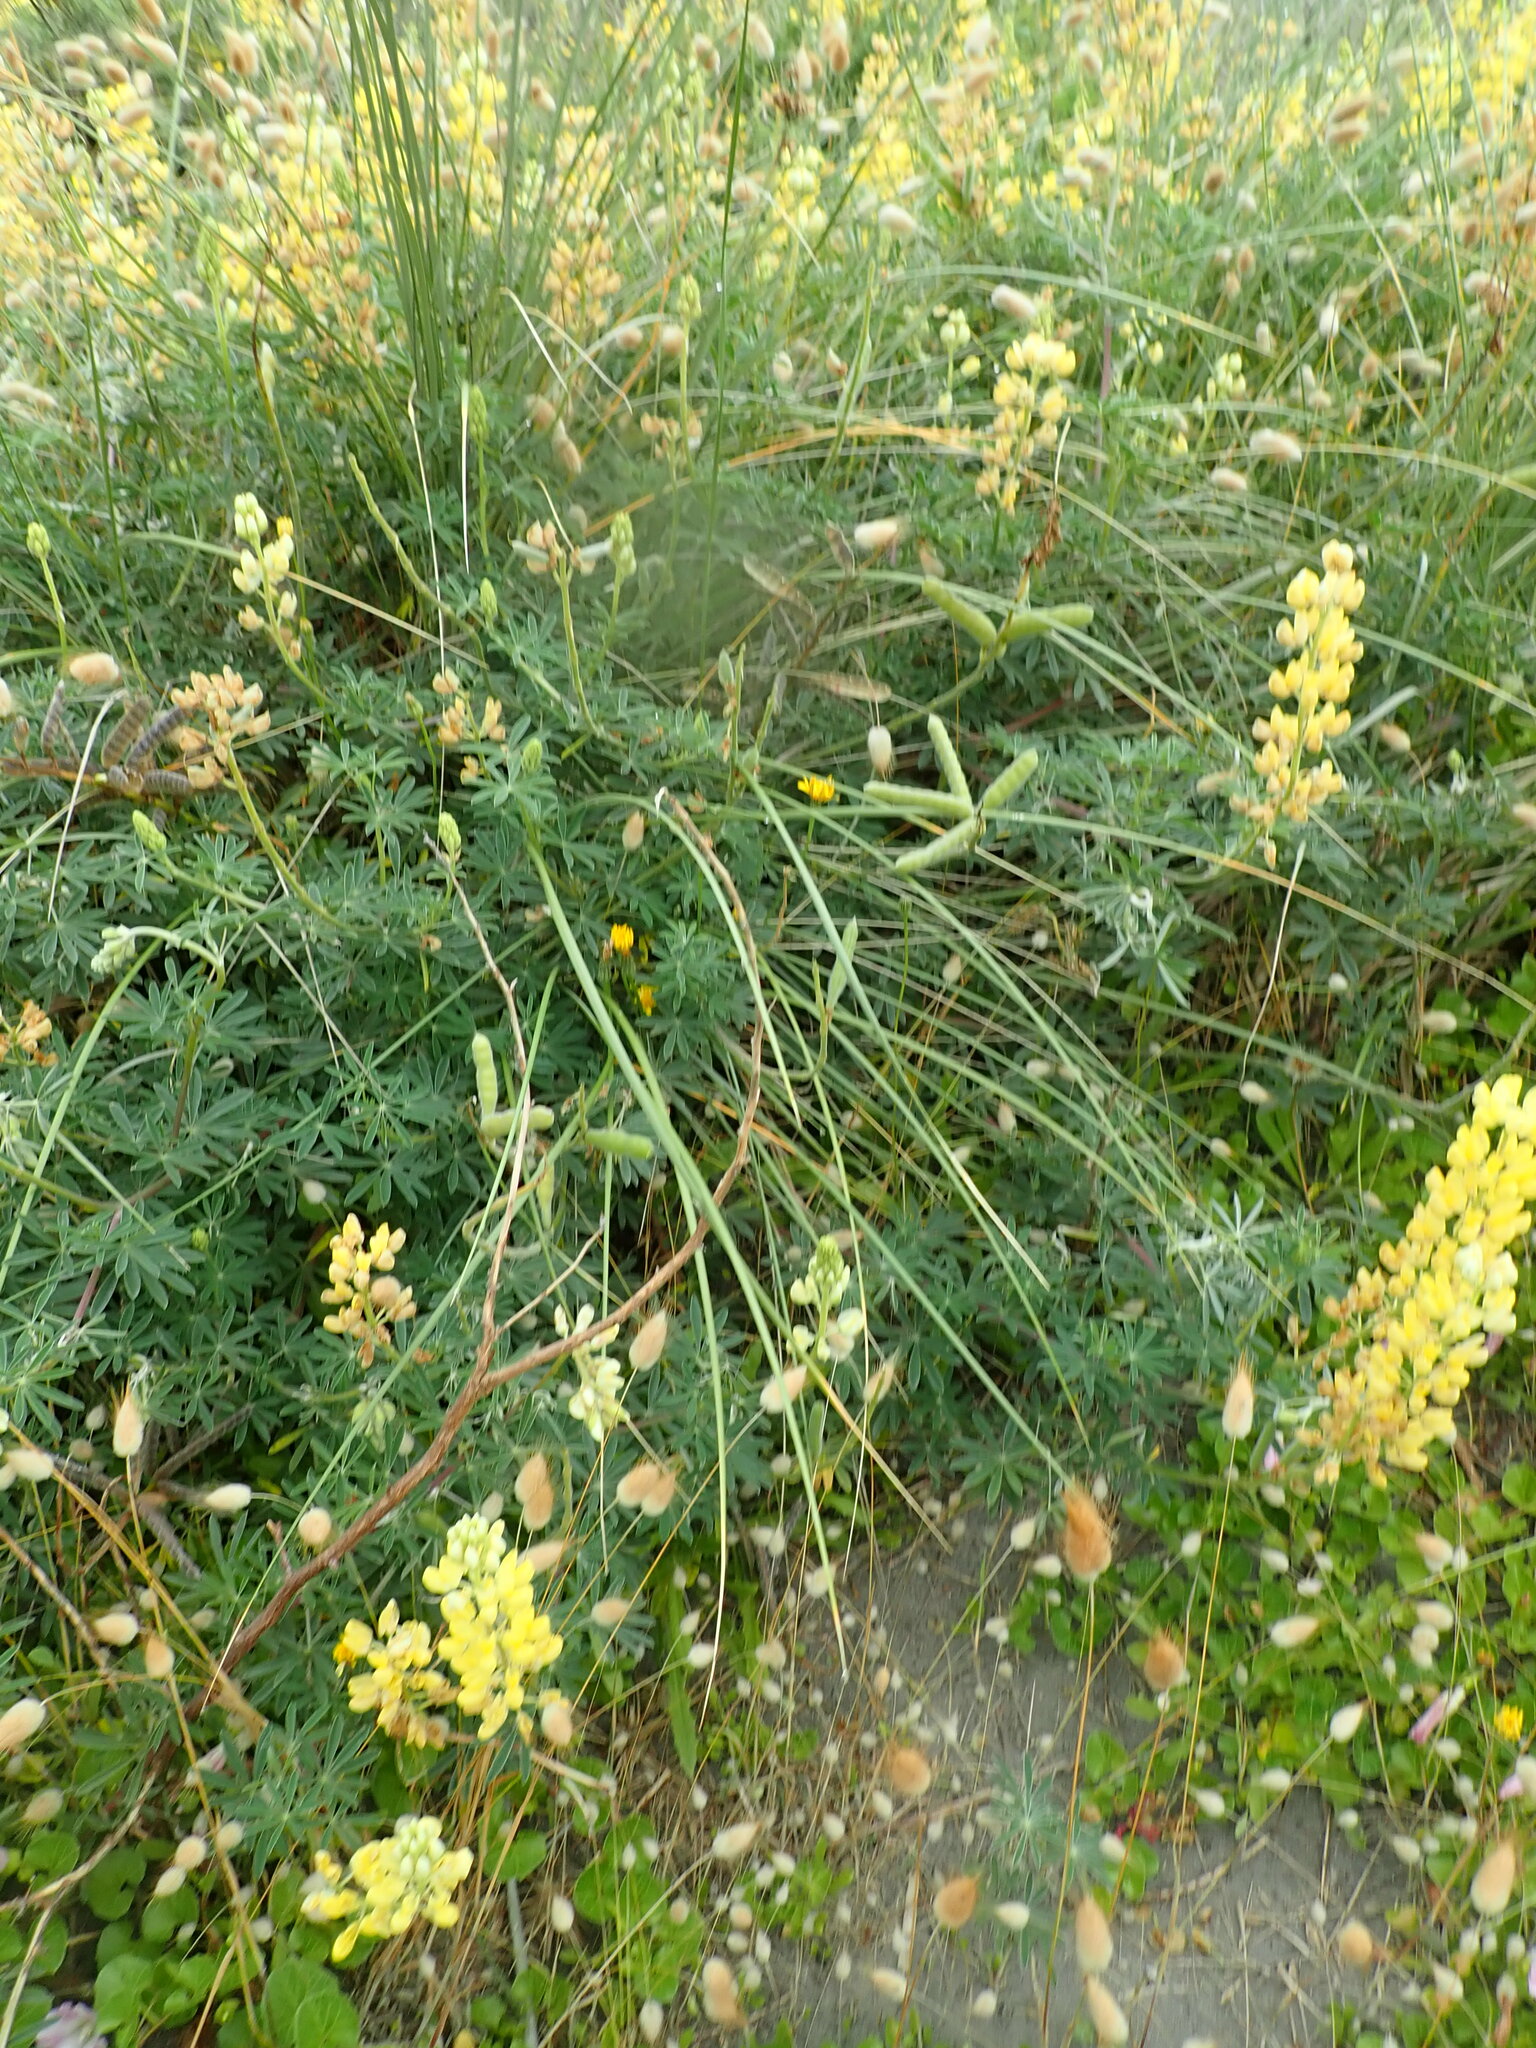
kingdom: Plantae
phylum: Tracheophyta
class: Magnoliopsida
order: Fabales
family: Fabaceae
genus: Lupinus
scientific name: Lupinus arboreus
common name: Yellow bush lupine
